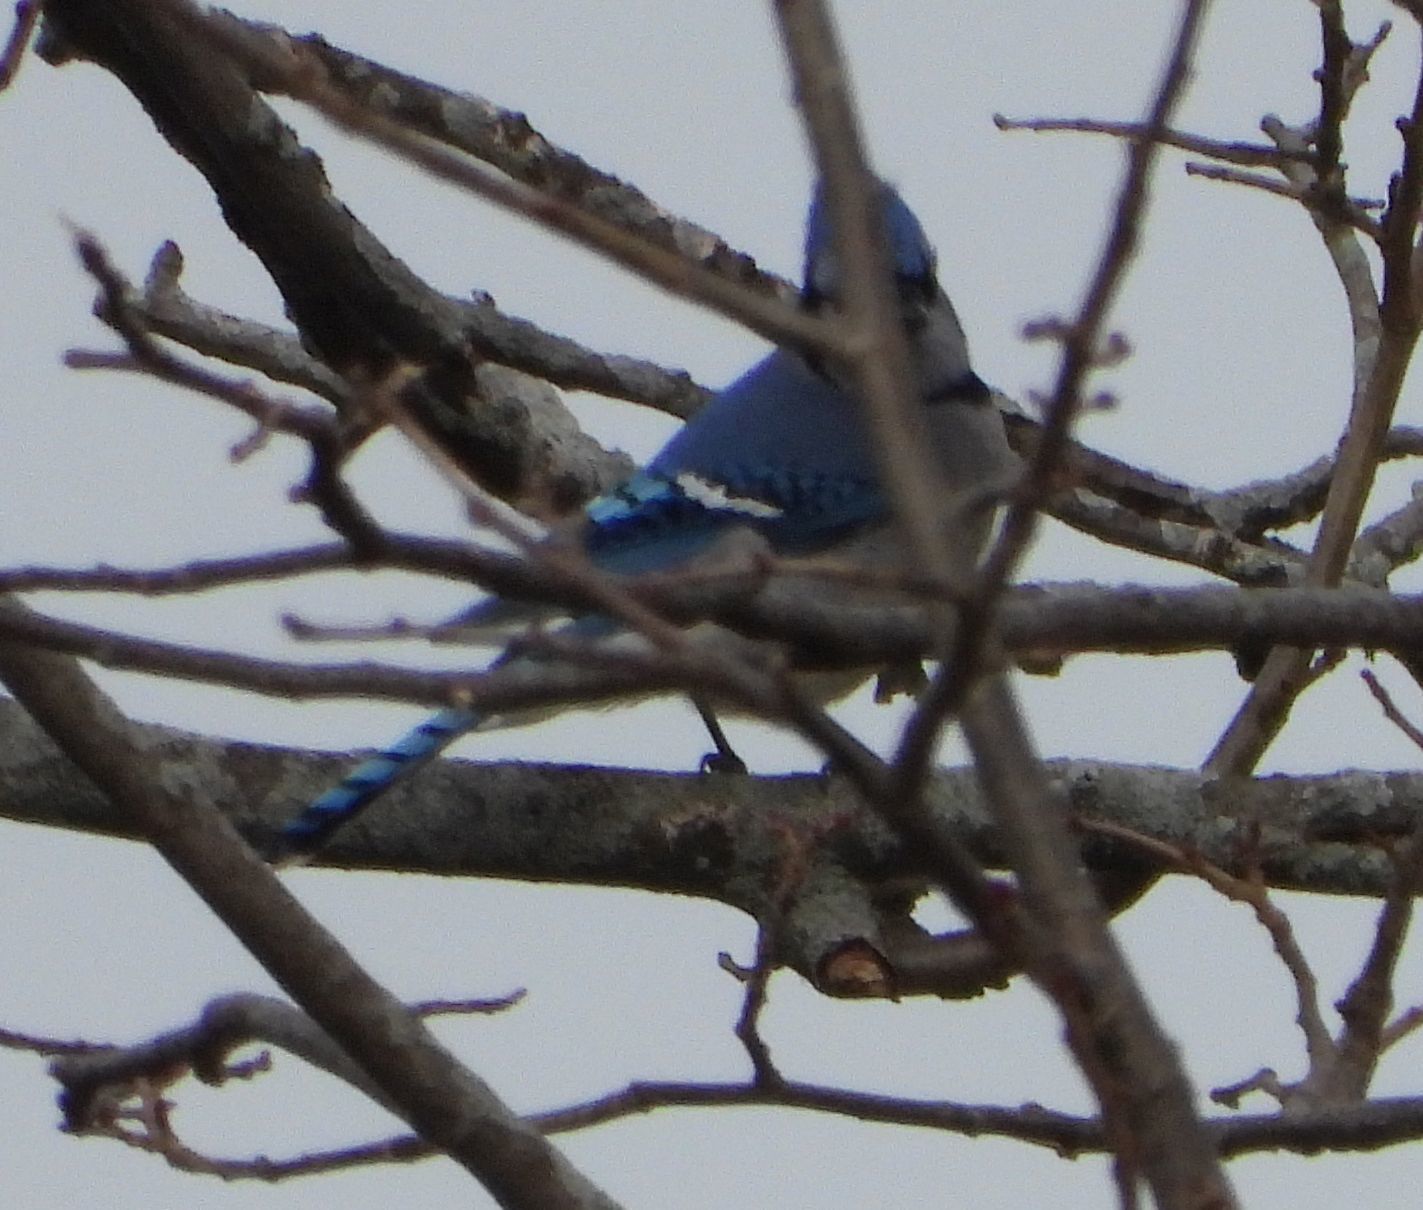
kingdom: Animalia
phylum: Chordata
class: Aves
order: Passeriformes
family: Corvidae
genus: Cyanocitta
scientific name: Cyanocitta cristata
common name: Blue jay
